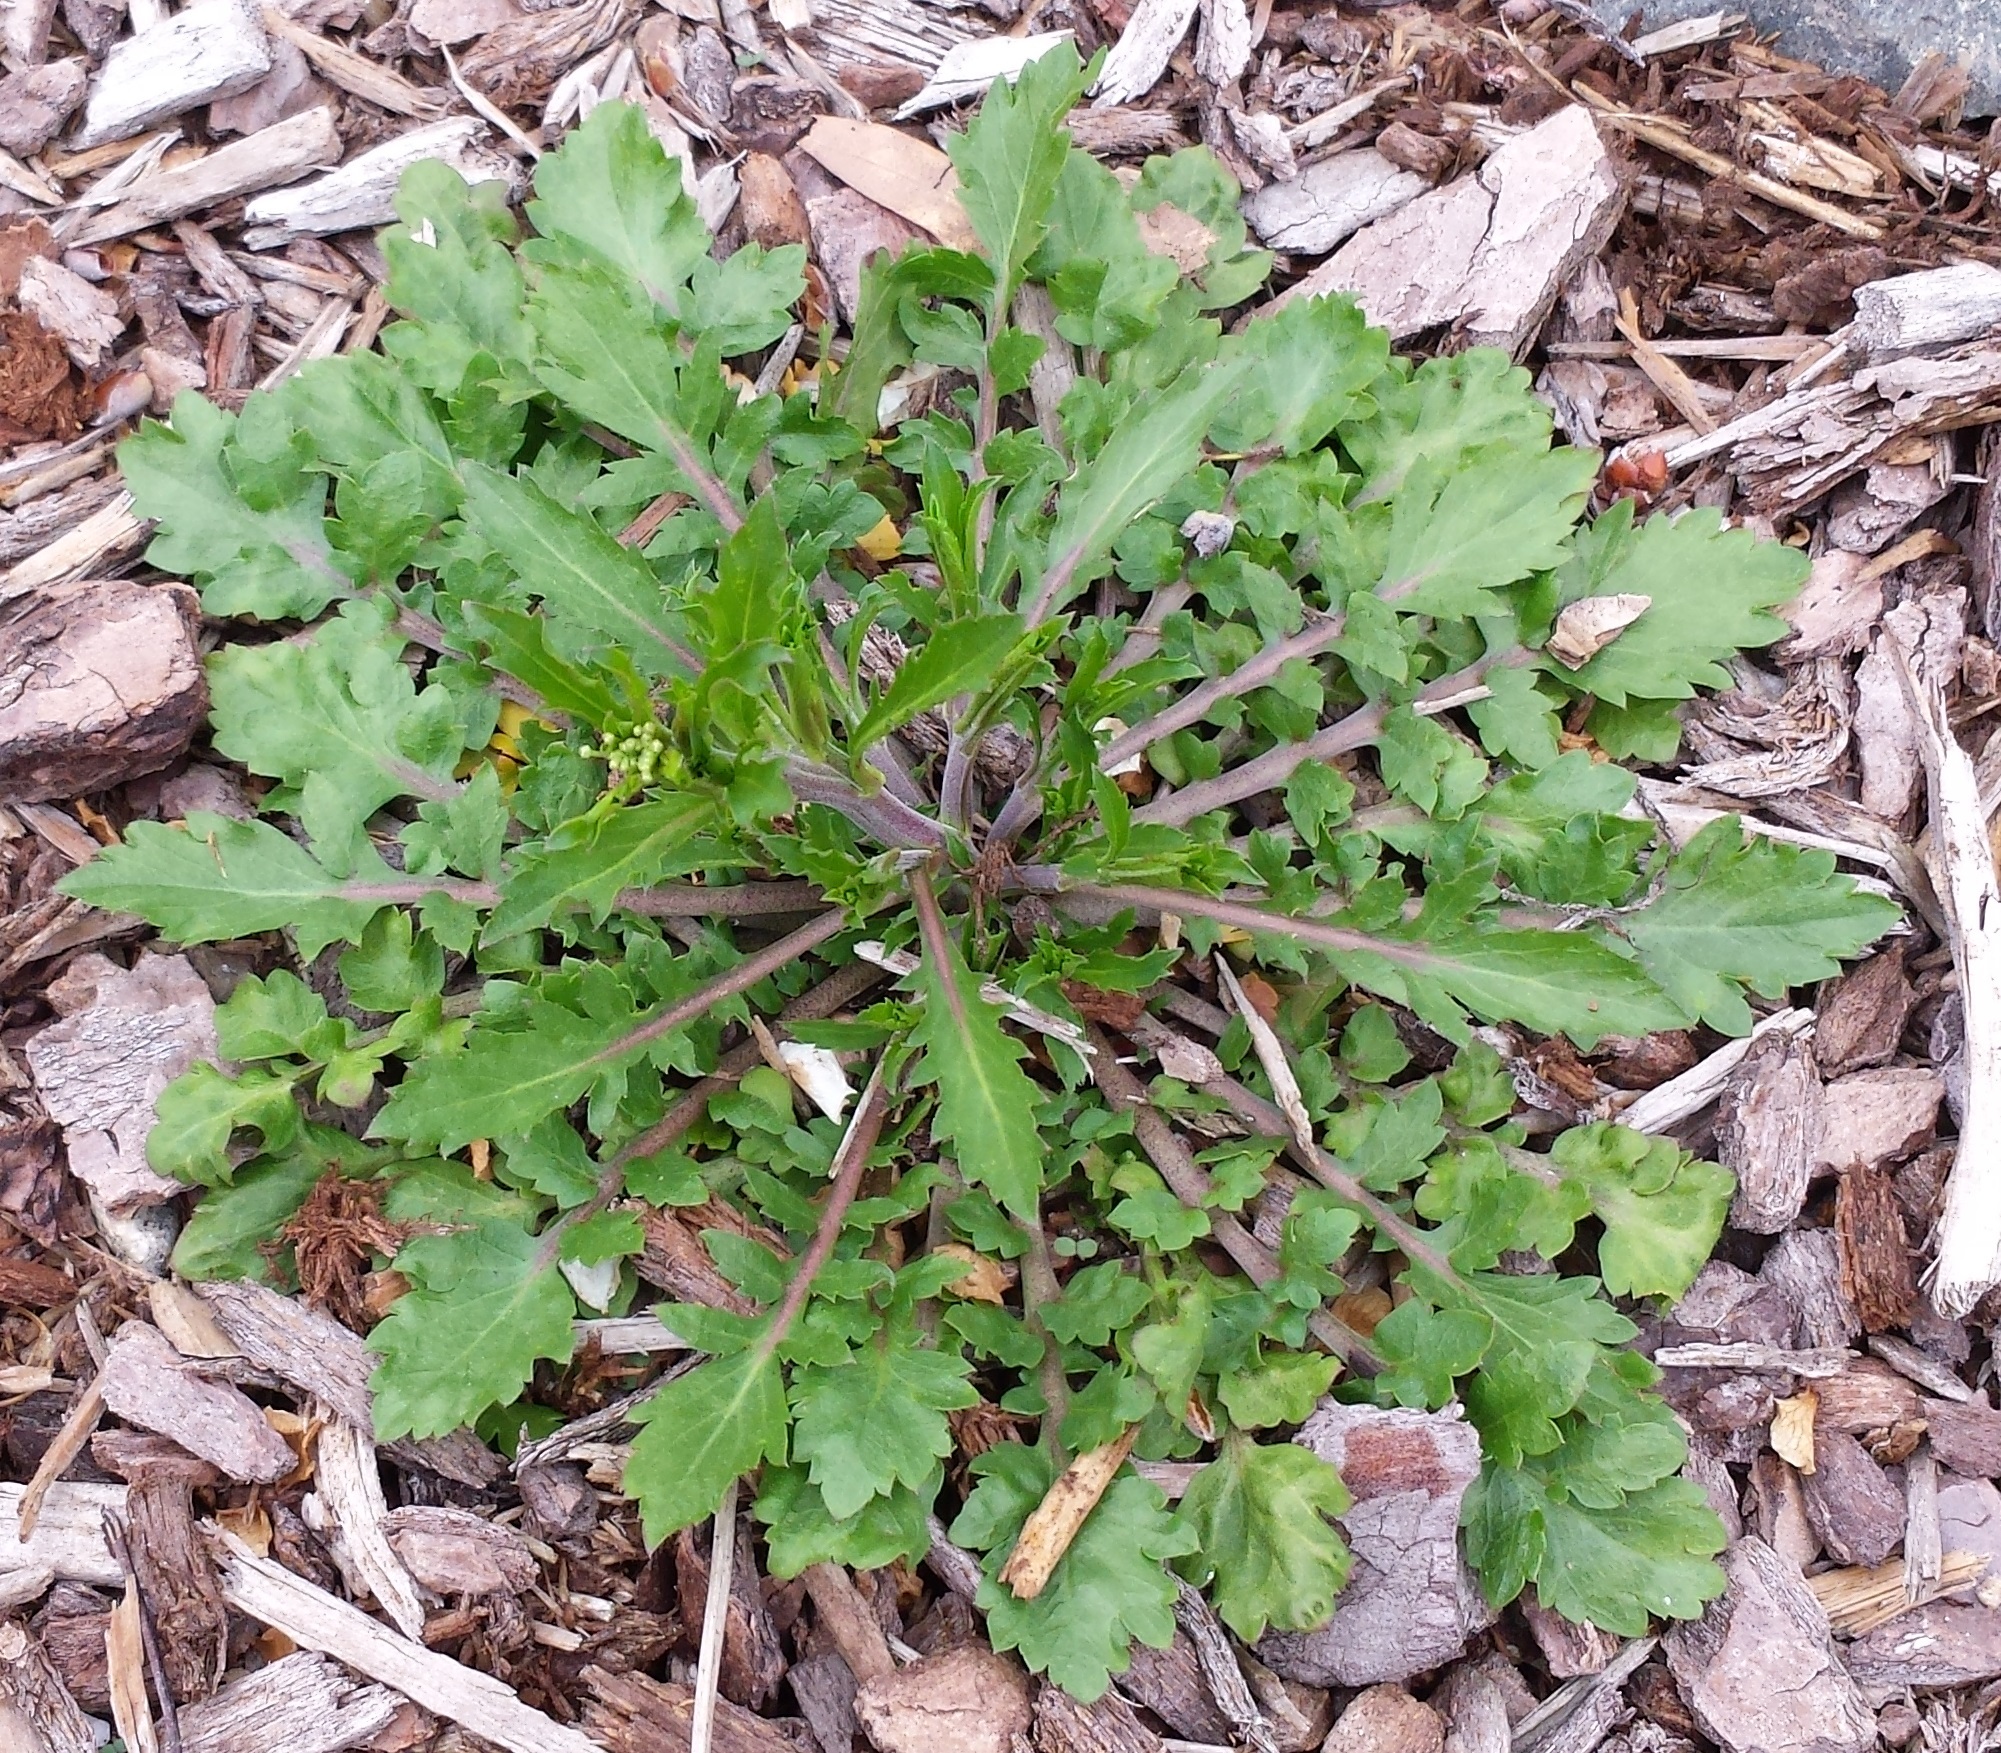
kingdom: Plantae
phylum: Tracheophyta
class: Magnoliopsida
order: Brassicales
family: Brassicaceae
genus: Lepidium
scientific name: Lepidium virginicum
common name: Least pepperwort
